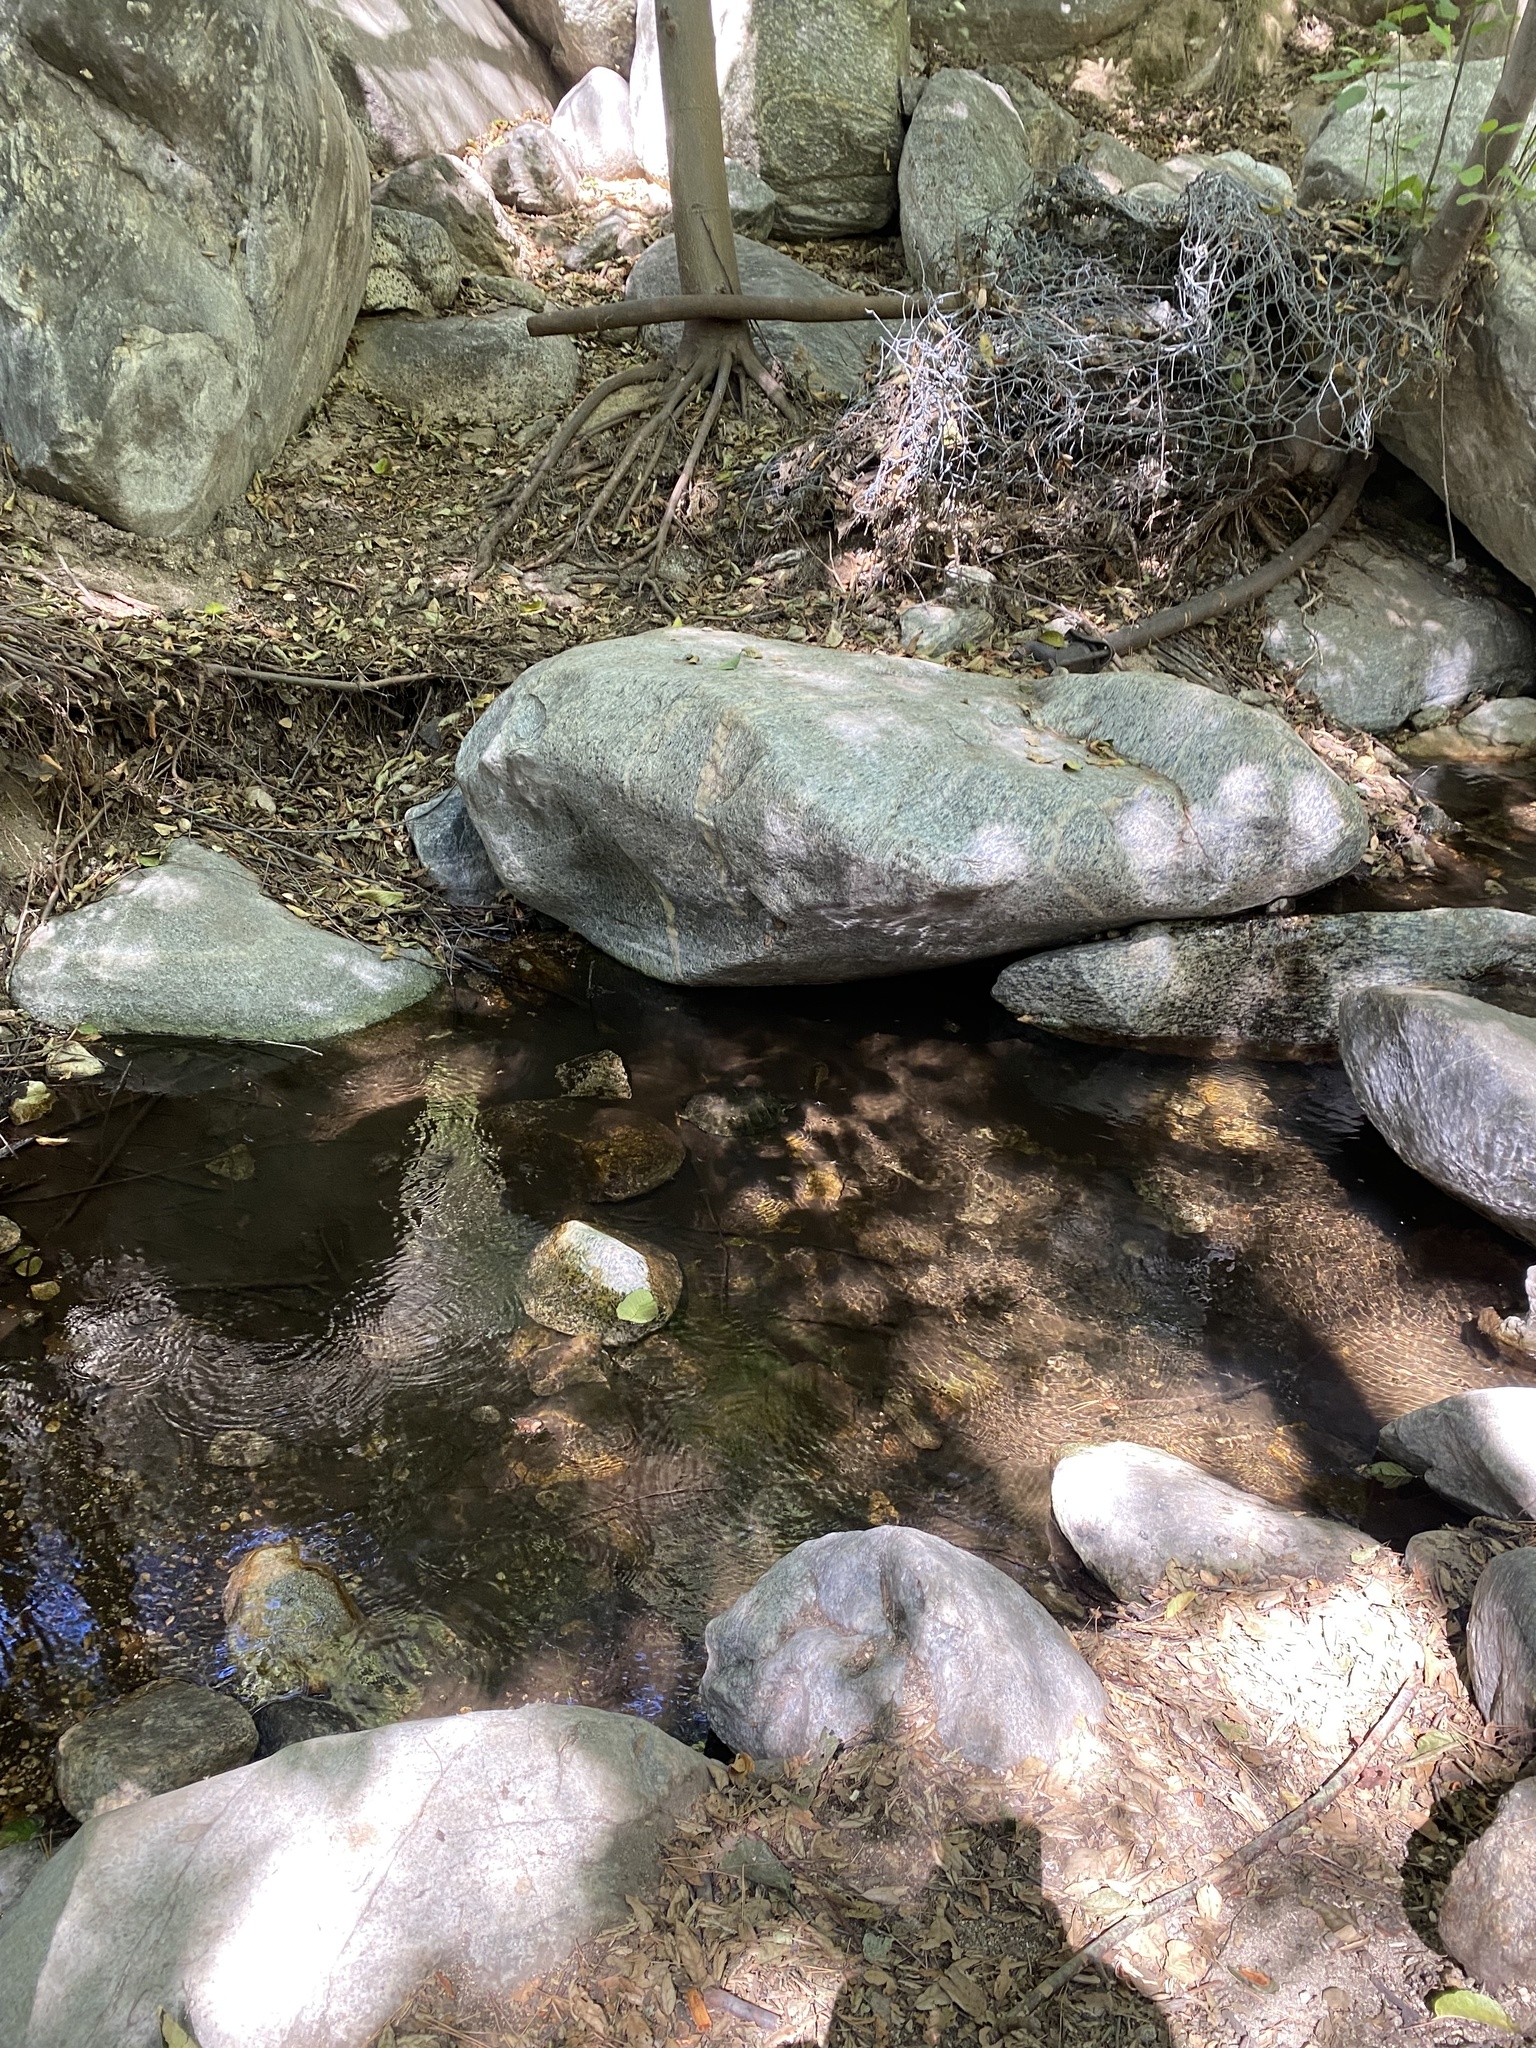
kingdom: Animalia
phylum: Chordata
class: Testudines
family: Emydidae
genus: Trachemys
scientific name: Trachemys scripta
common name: Slider
